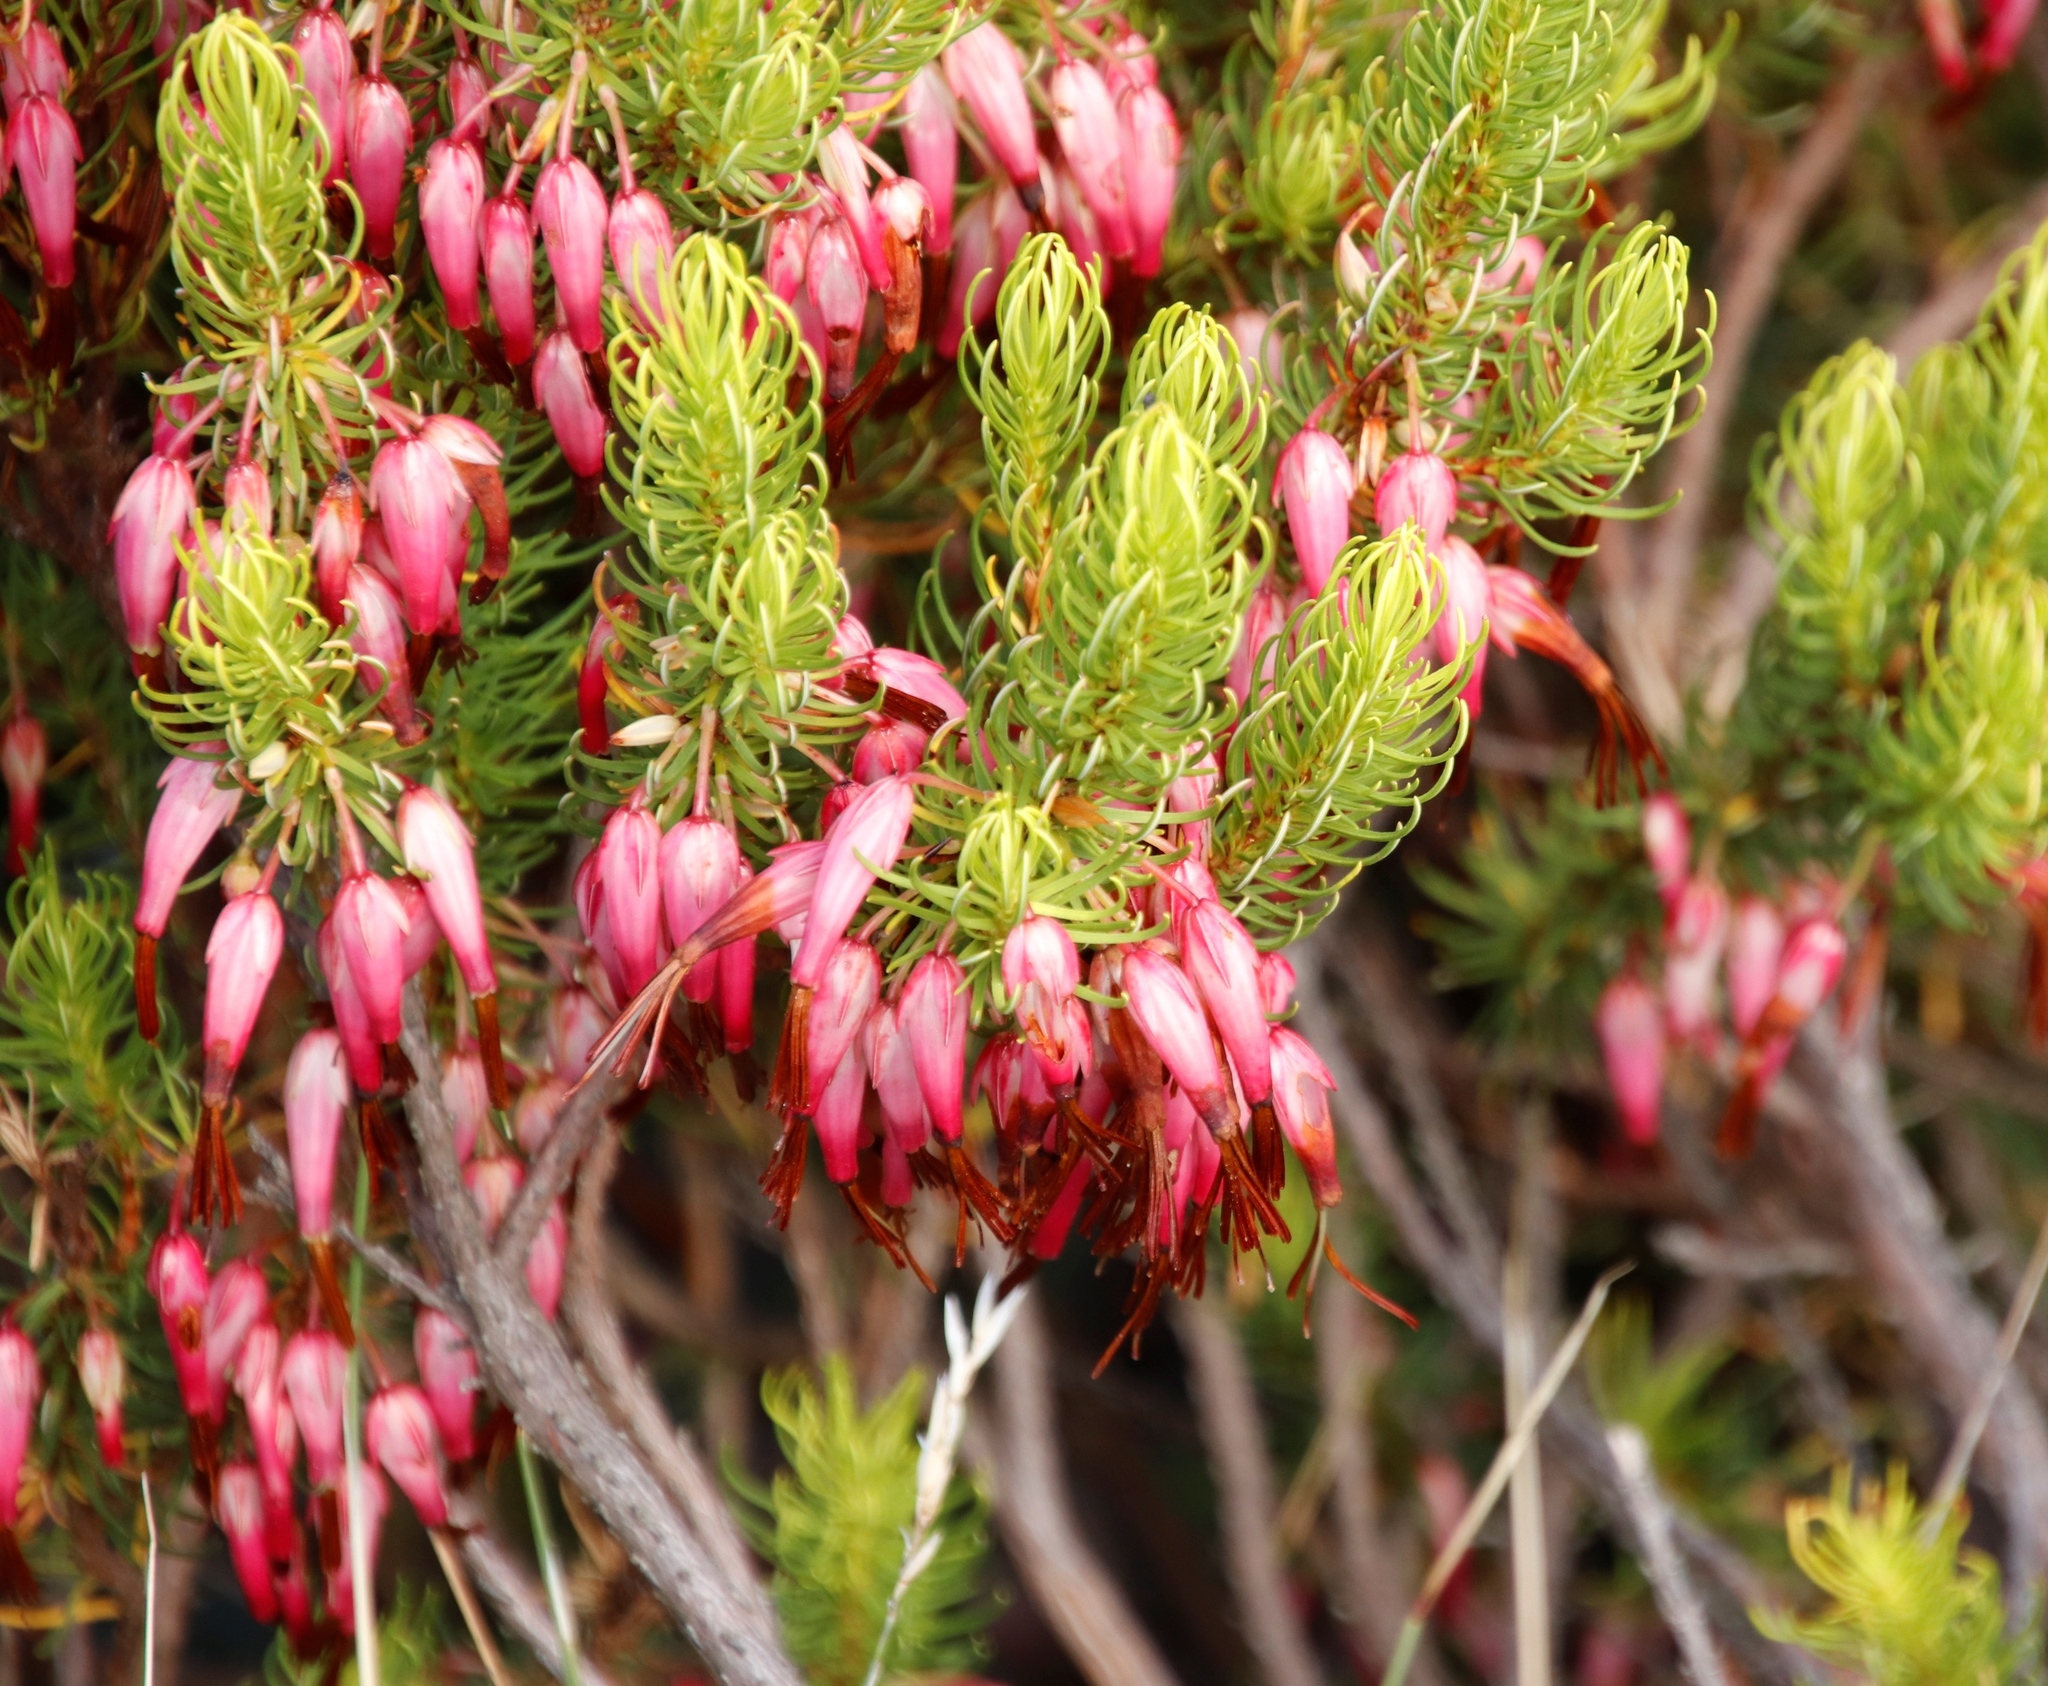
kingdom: Plantae
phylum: Tracheophyta
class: Magnoliopsida
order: Ericales
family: Ericaceae
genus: Erica
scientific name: Erica plukenetii
